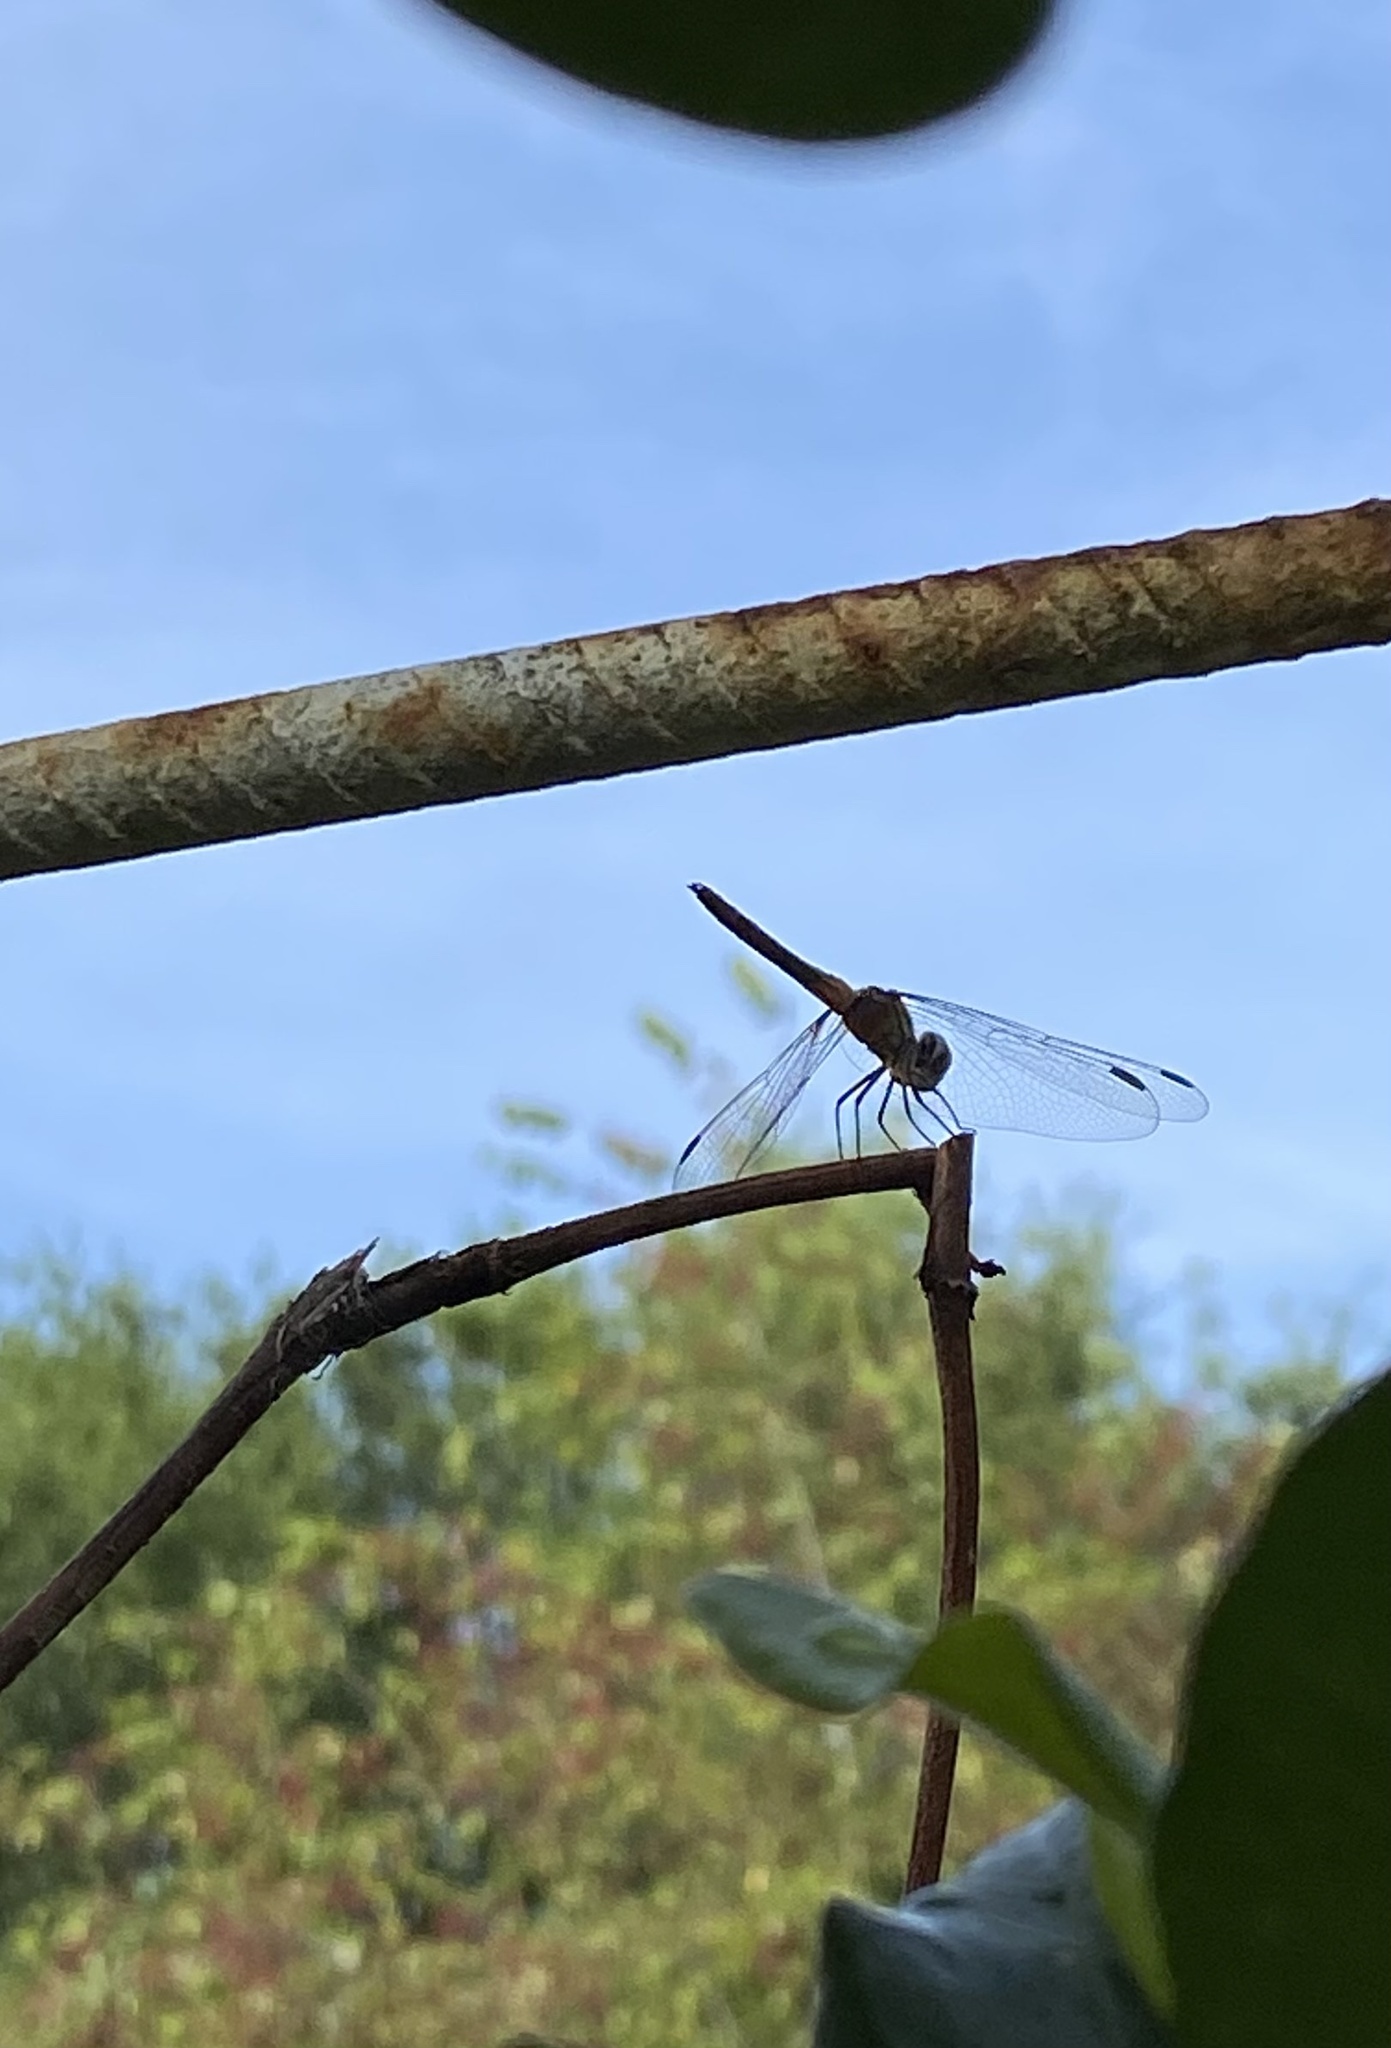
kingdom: Animalia
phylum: Arthropoda
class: Insecta
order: Odonata
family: Libellulidae
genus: Pachydiplax
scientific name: Pachydiplax longipennis
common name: Blue dasher
